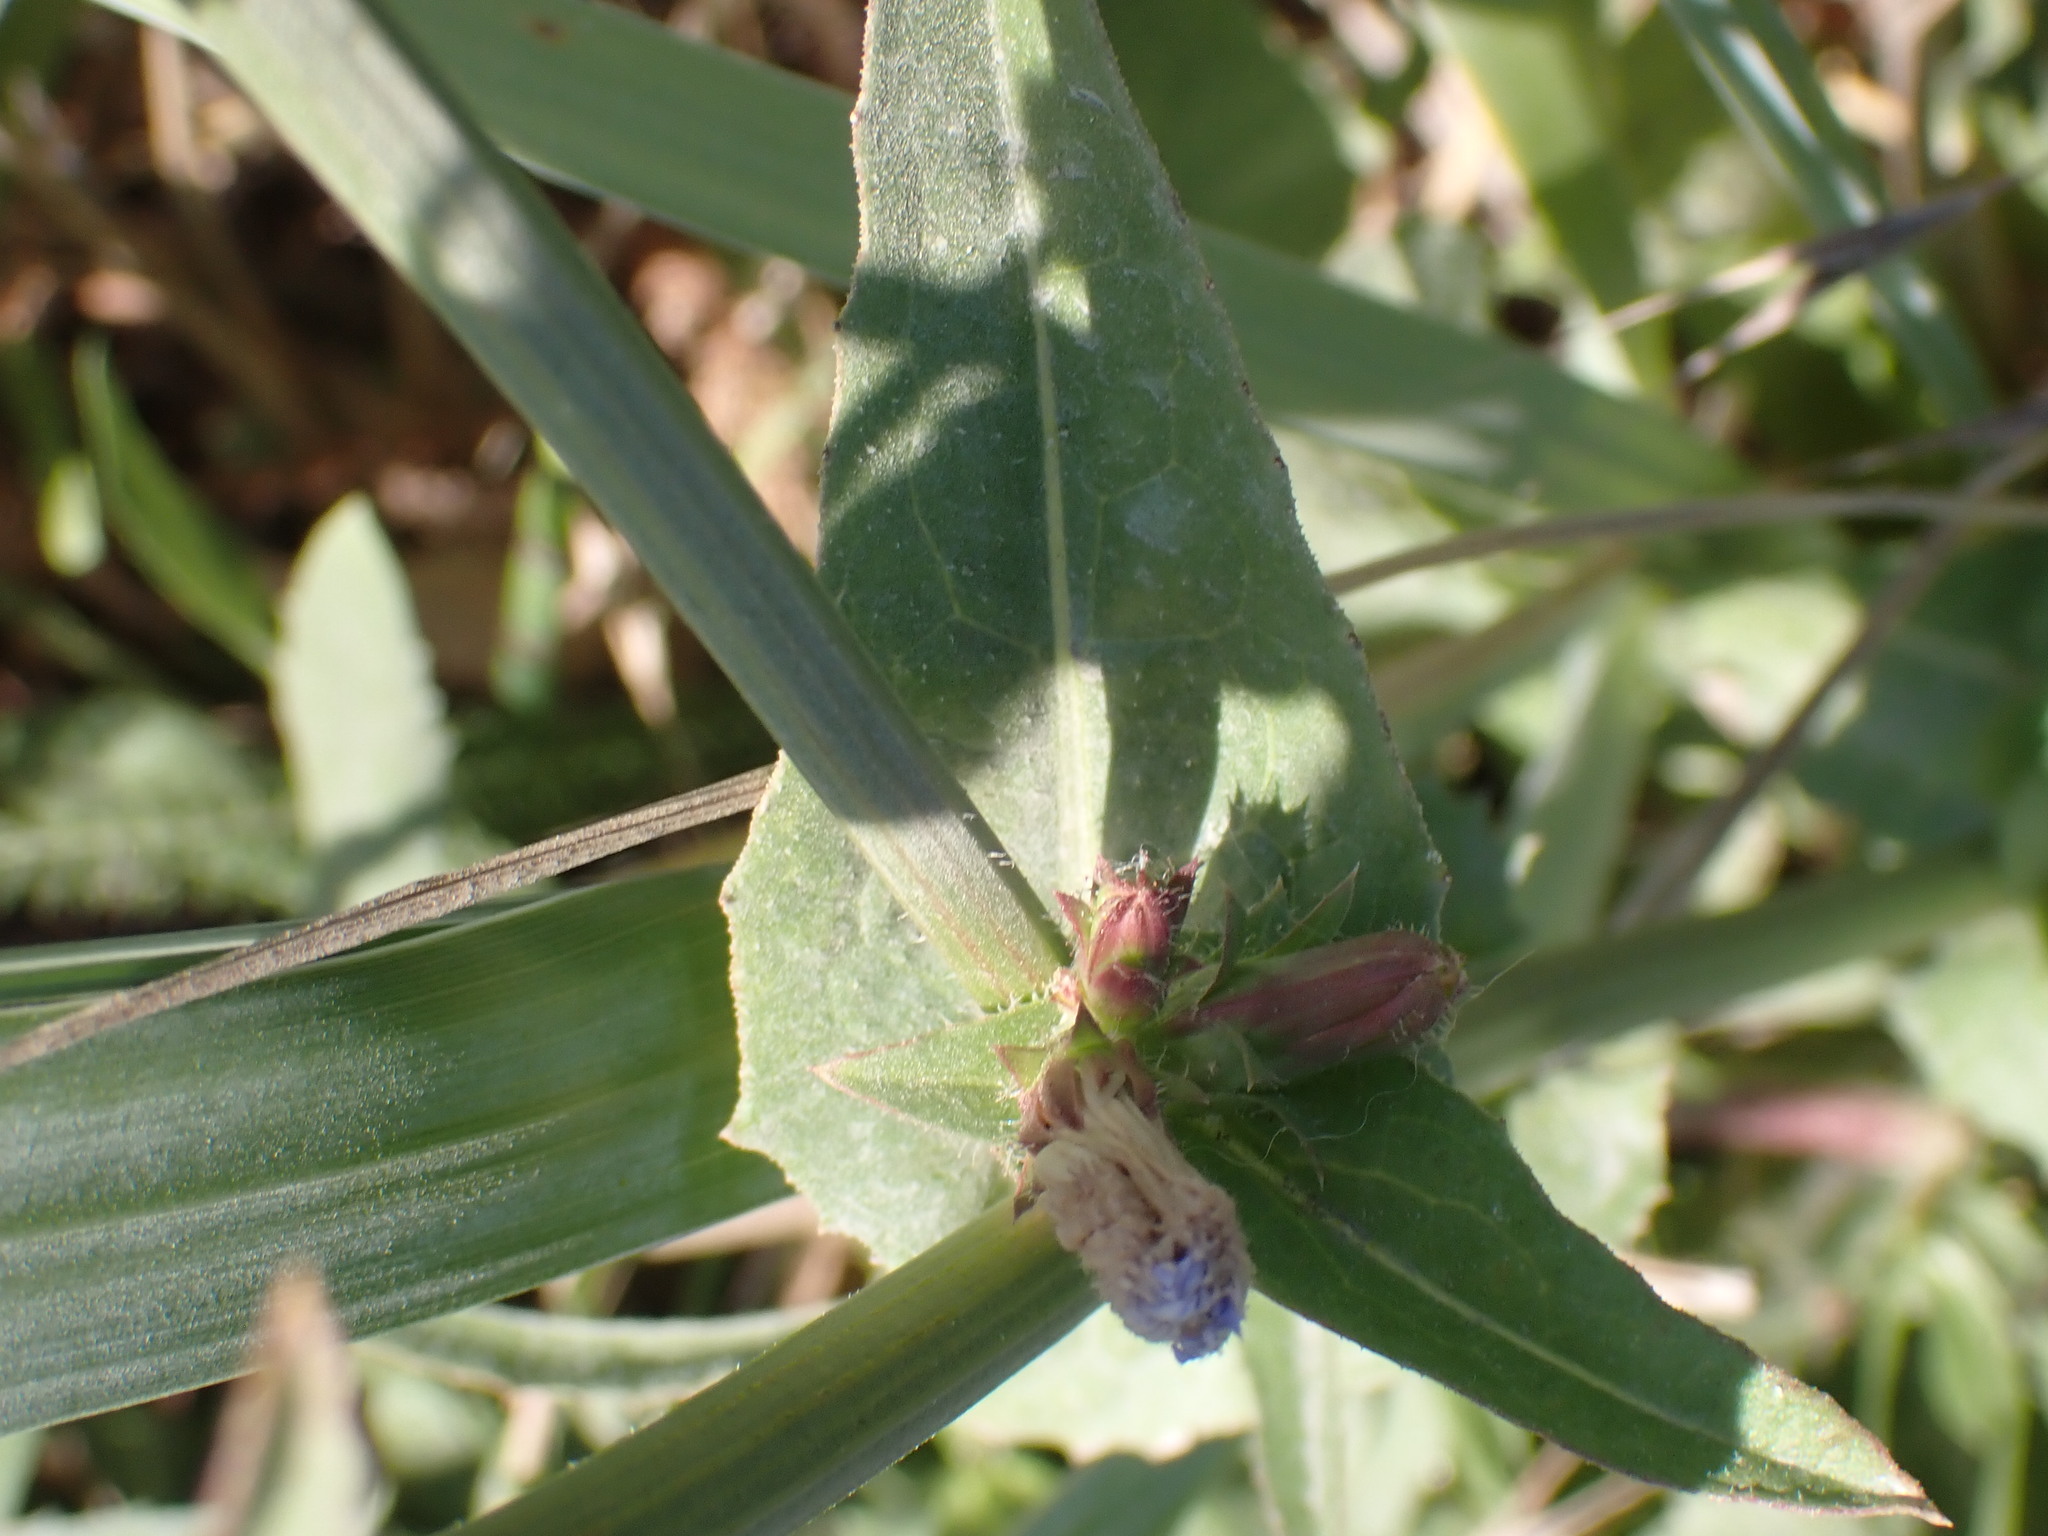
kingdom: Plantae
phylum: Tracheophyta
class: Magnoliopsida
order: Asterales
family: Asteraceae
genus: Cichorium
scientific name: Cichorium intybus
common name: Chicory
